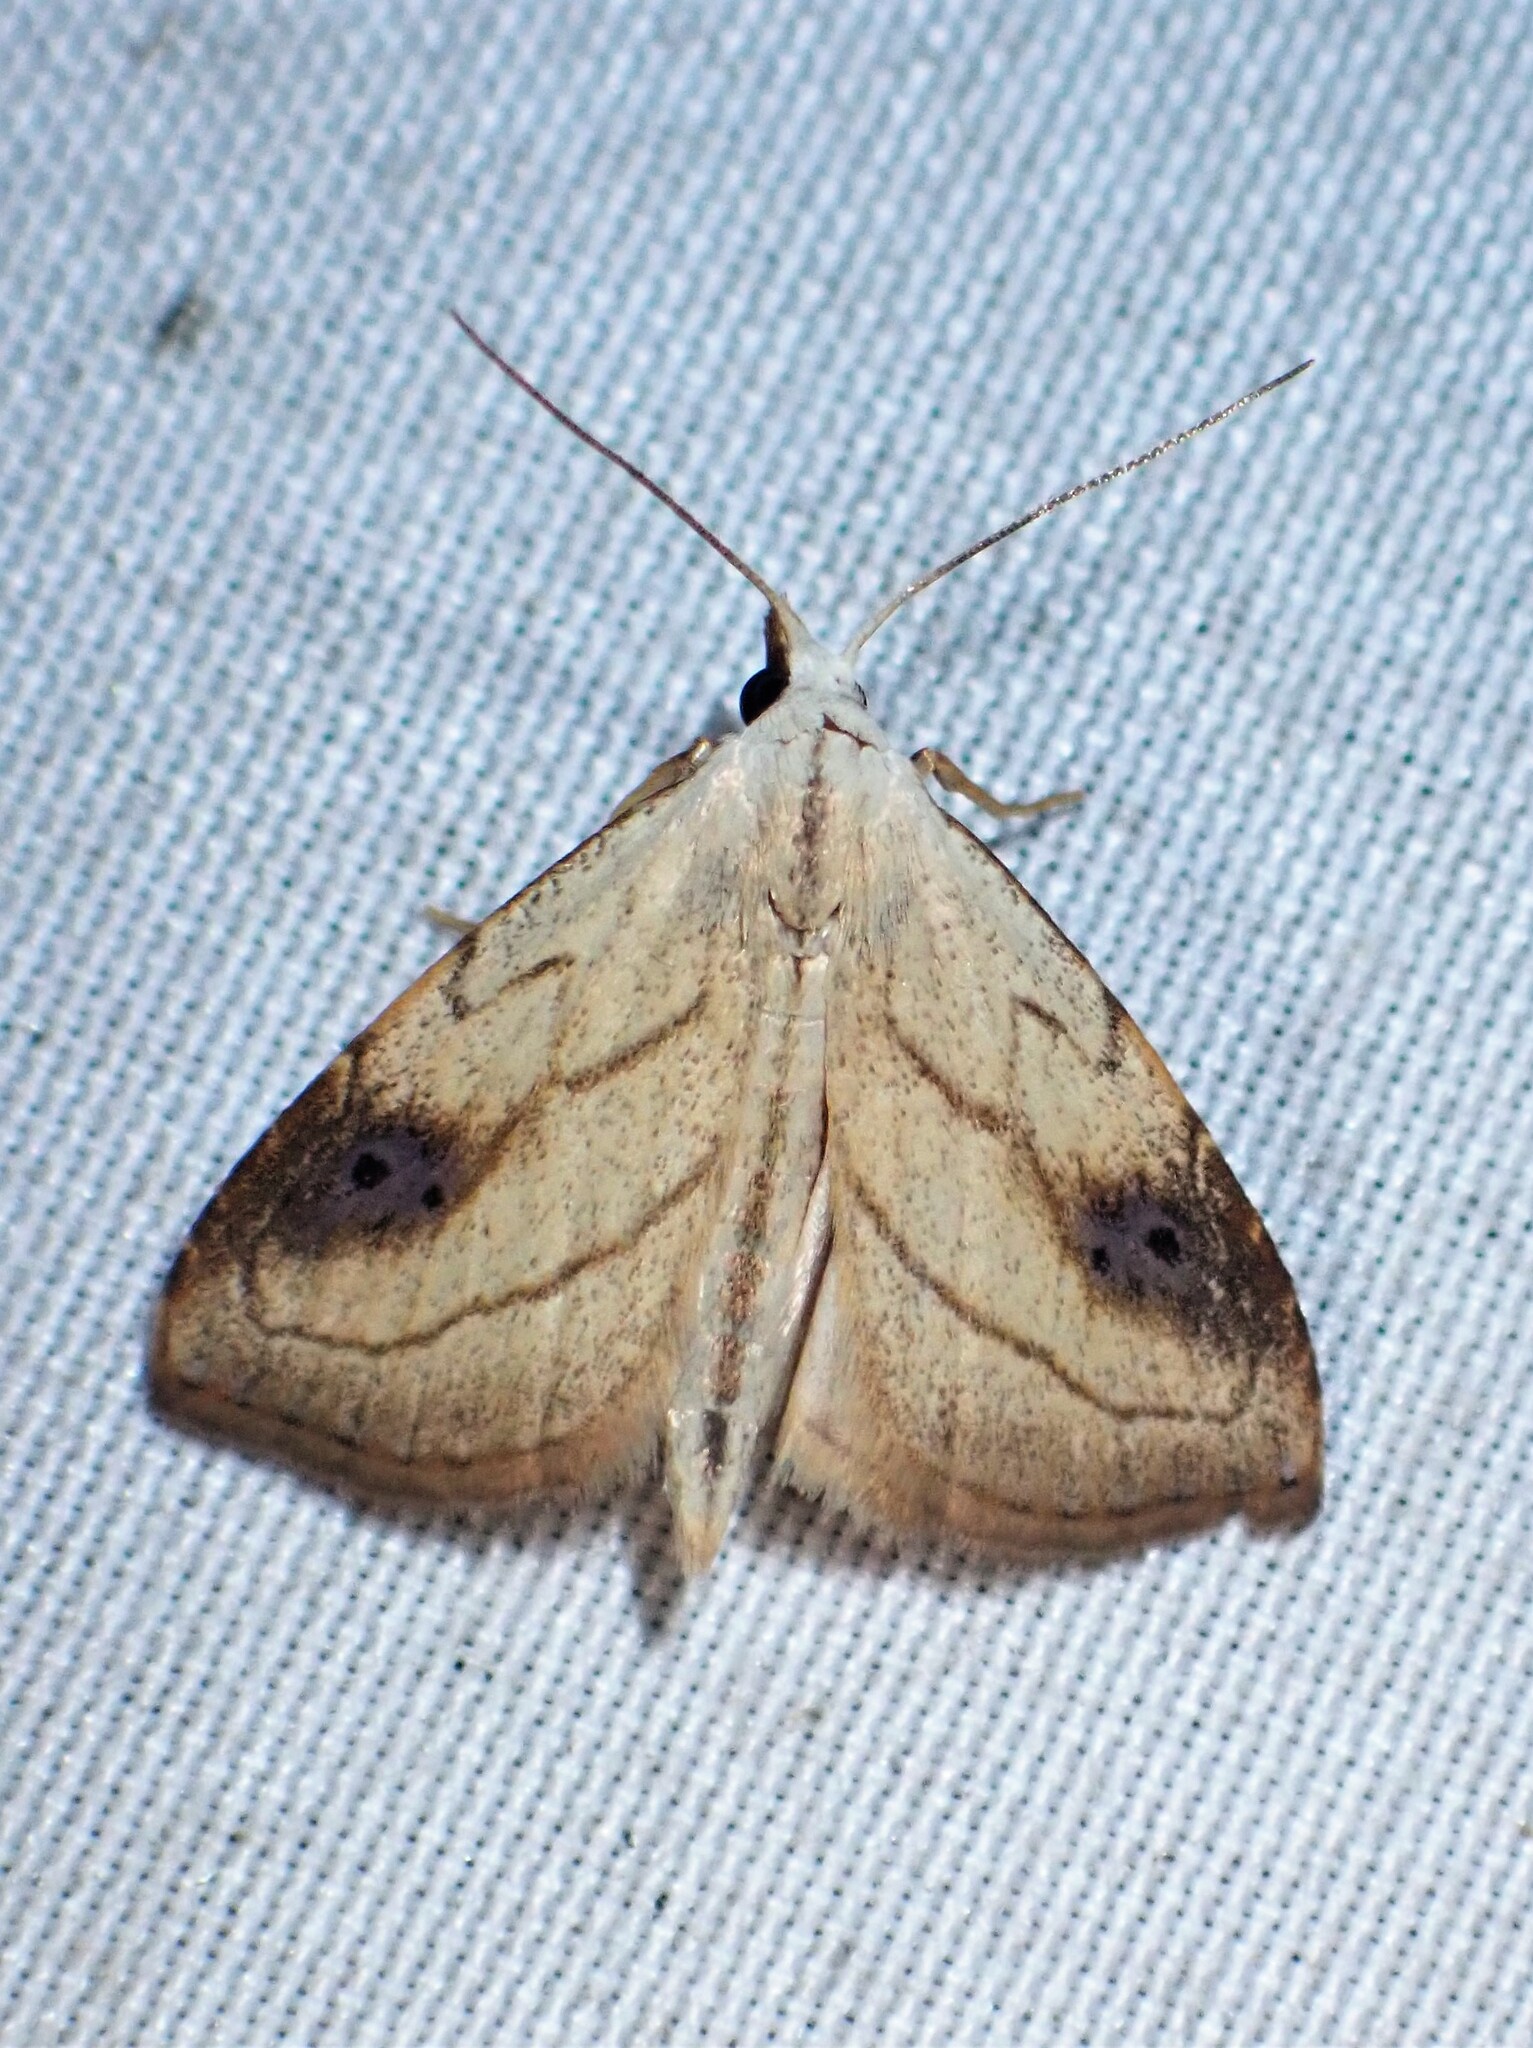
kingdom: Animalia
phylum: Arthropoda
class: Insecta
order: Lepidoptera
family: Erebidae
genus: Rivula
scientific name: Rivula propinqualis
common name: Spotted grass moth
